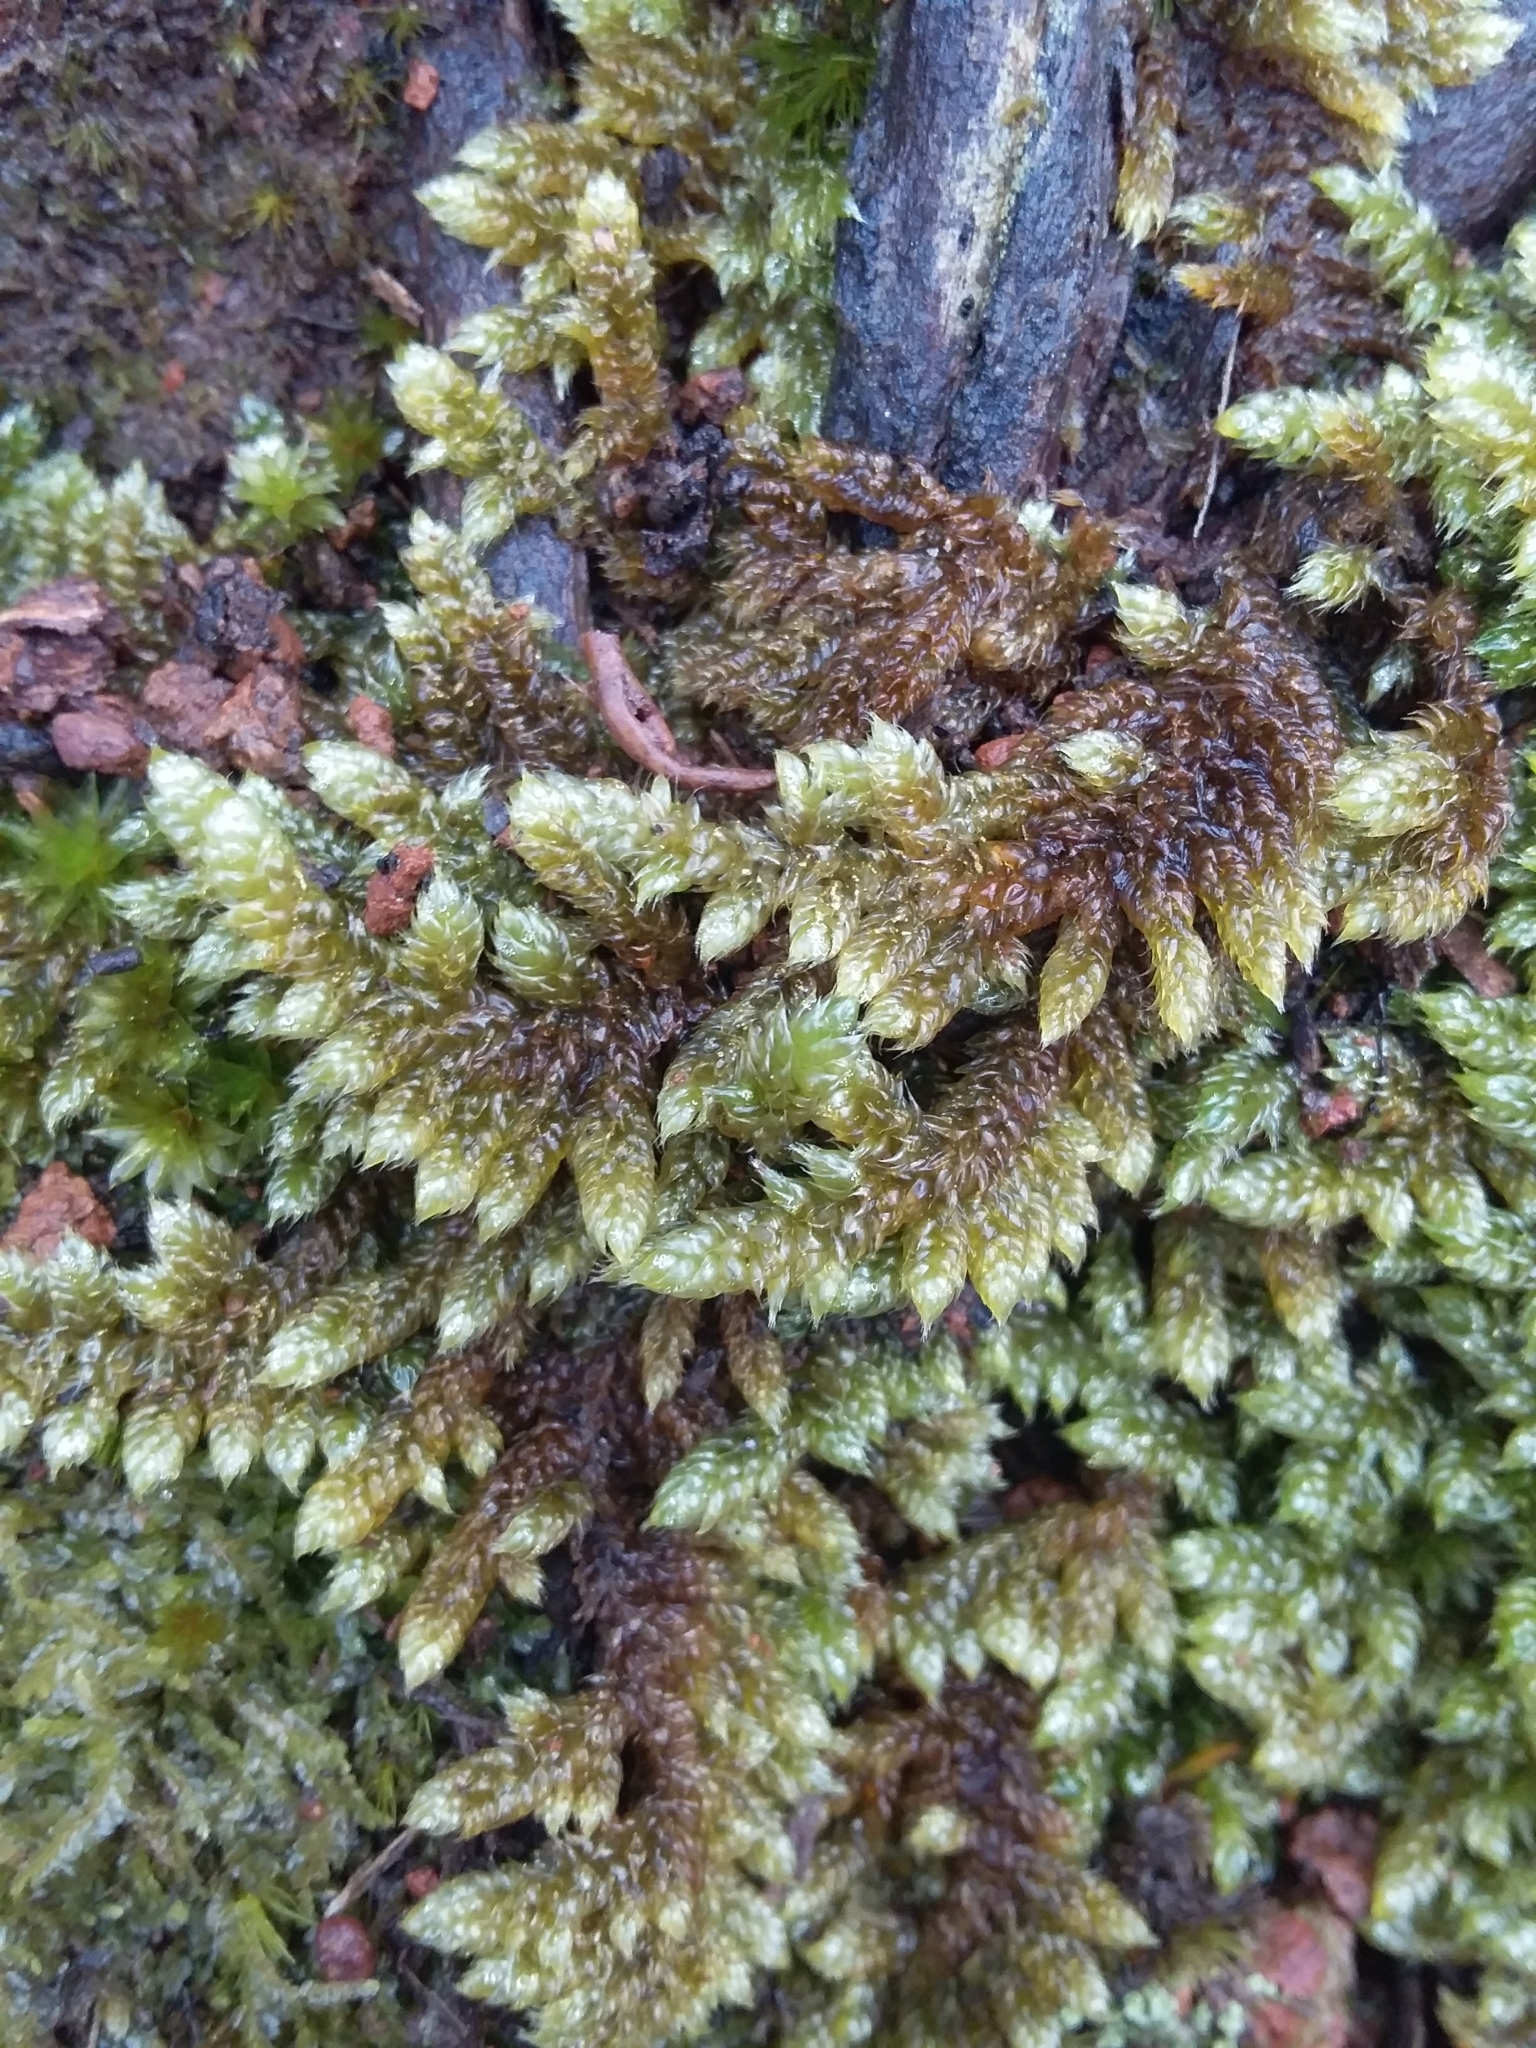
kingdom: Plantae
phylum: Bryophyta
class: Bryopsida
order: Hypnales
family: Hypnaceae
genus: Hypnum
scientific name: Hypnum cupressiforme
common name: Cypress-leaved plait-moss
